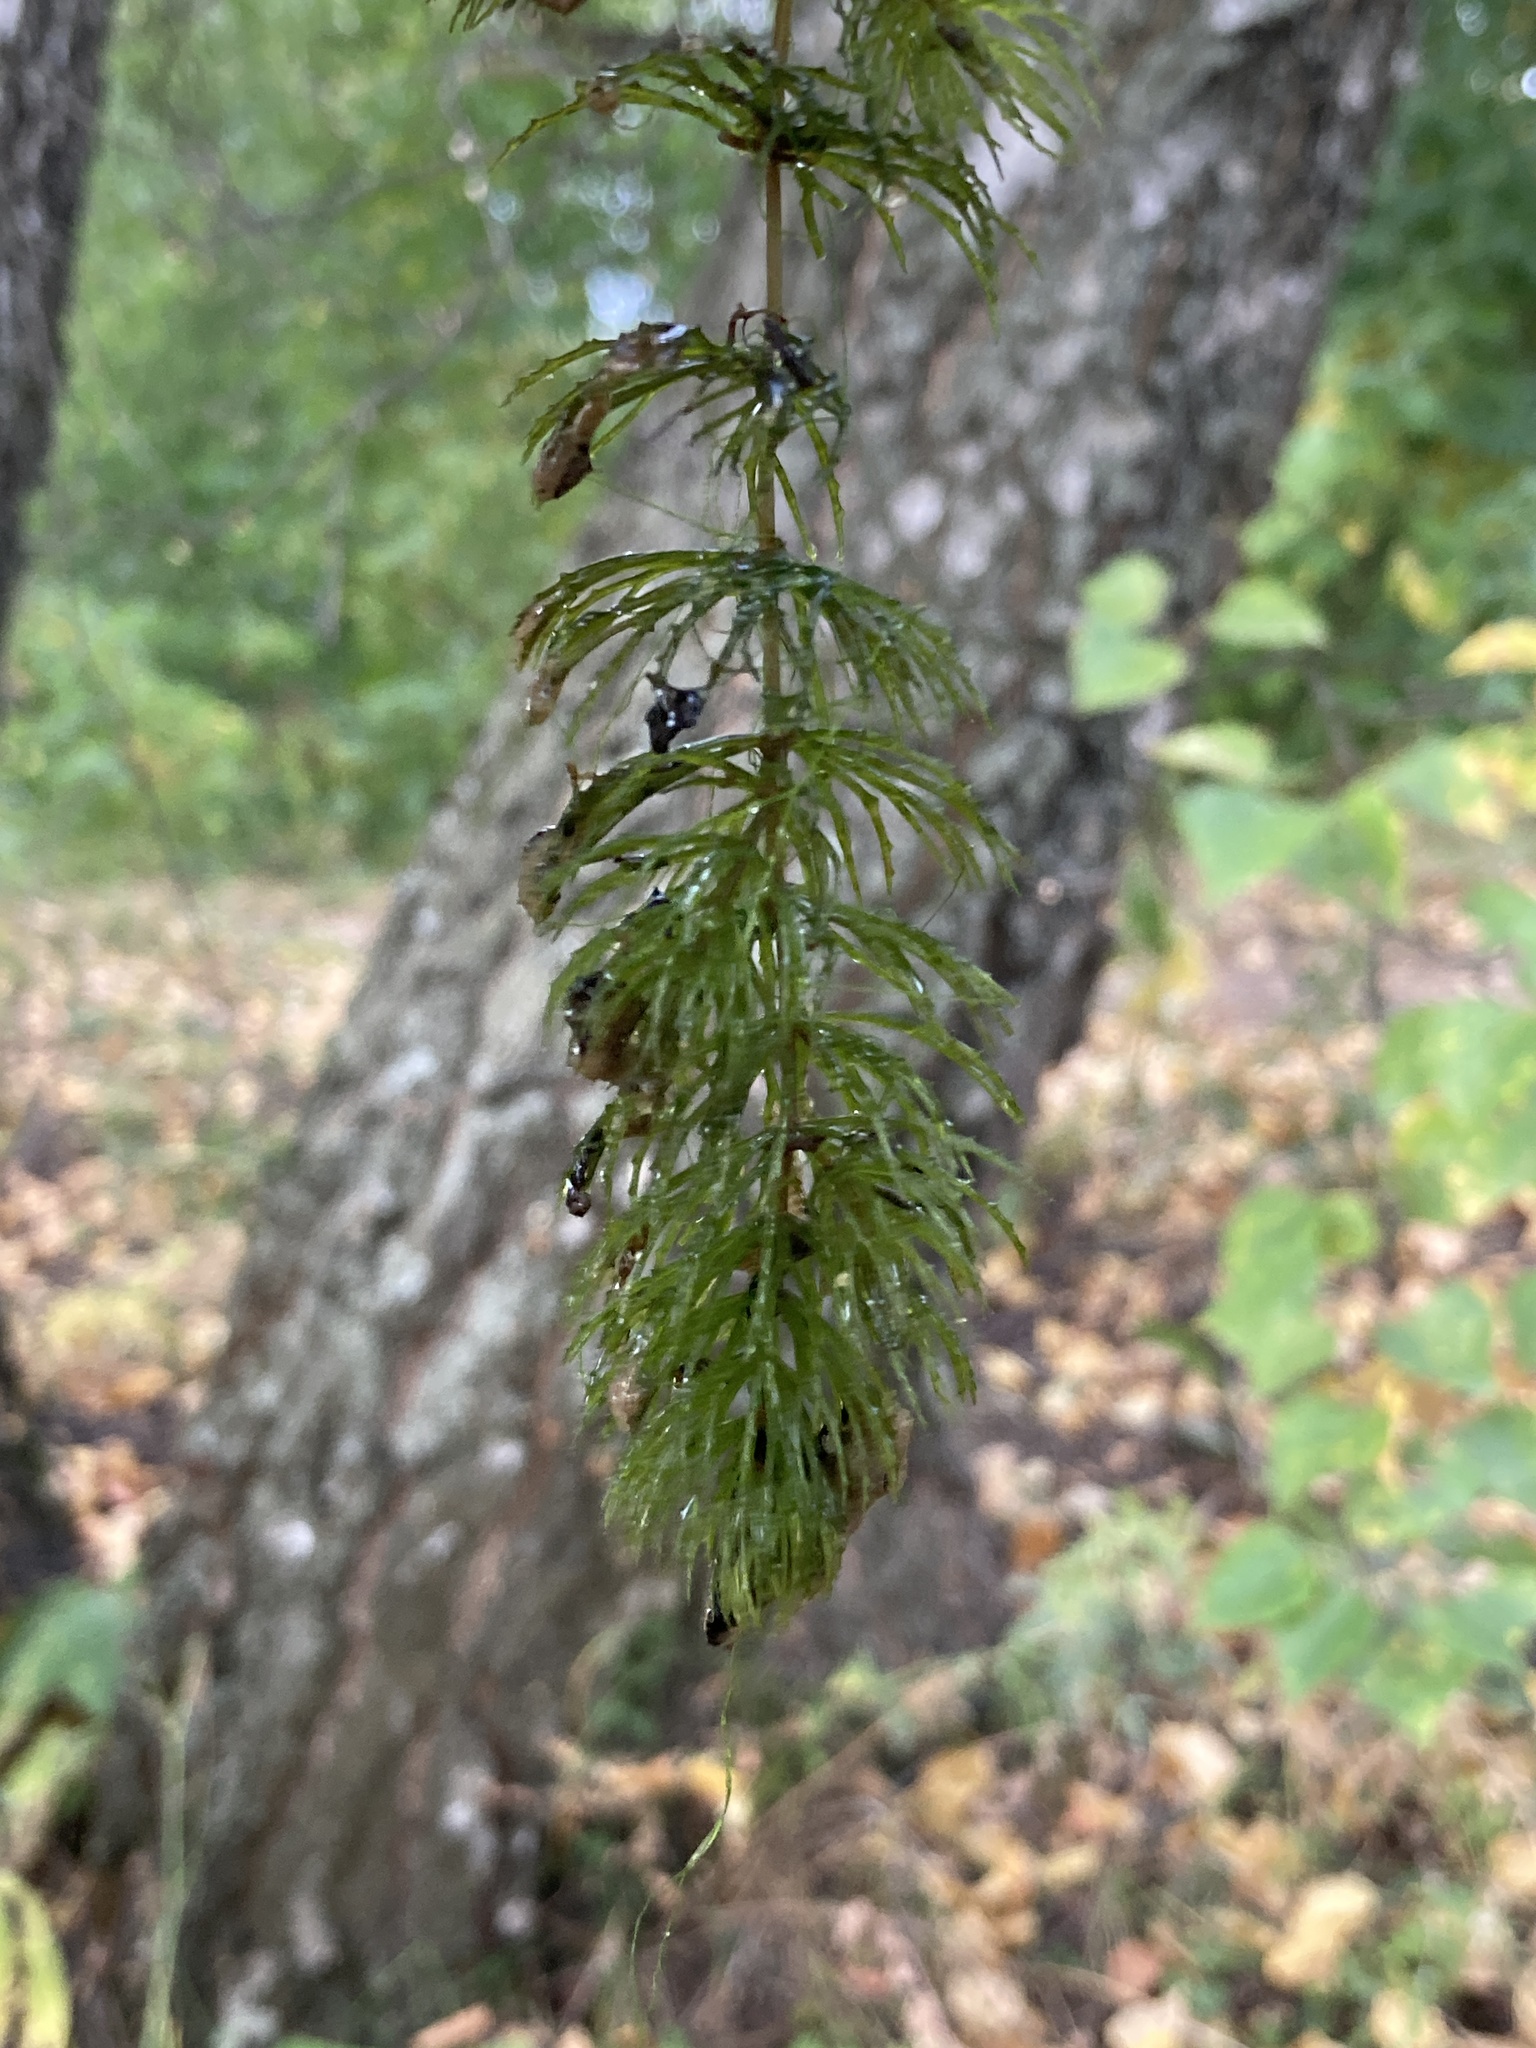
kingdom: Plantae
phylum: Tracheophyta
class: Magnoliopsida
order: Ceratophyllales
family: Ceratophyllaceae
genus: Ceratophyllum
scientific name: Ceratophyllum demersum
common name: Rigid hornwort
